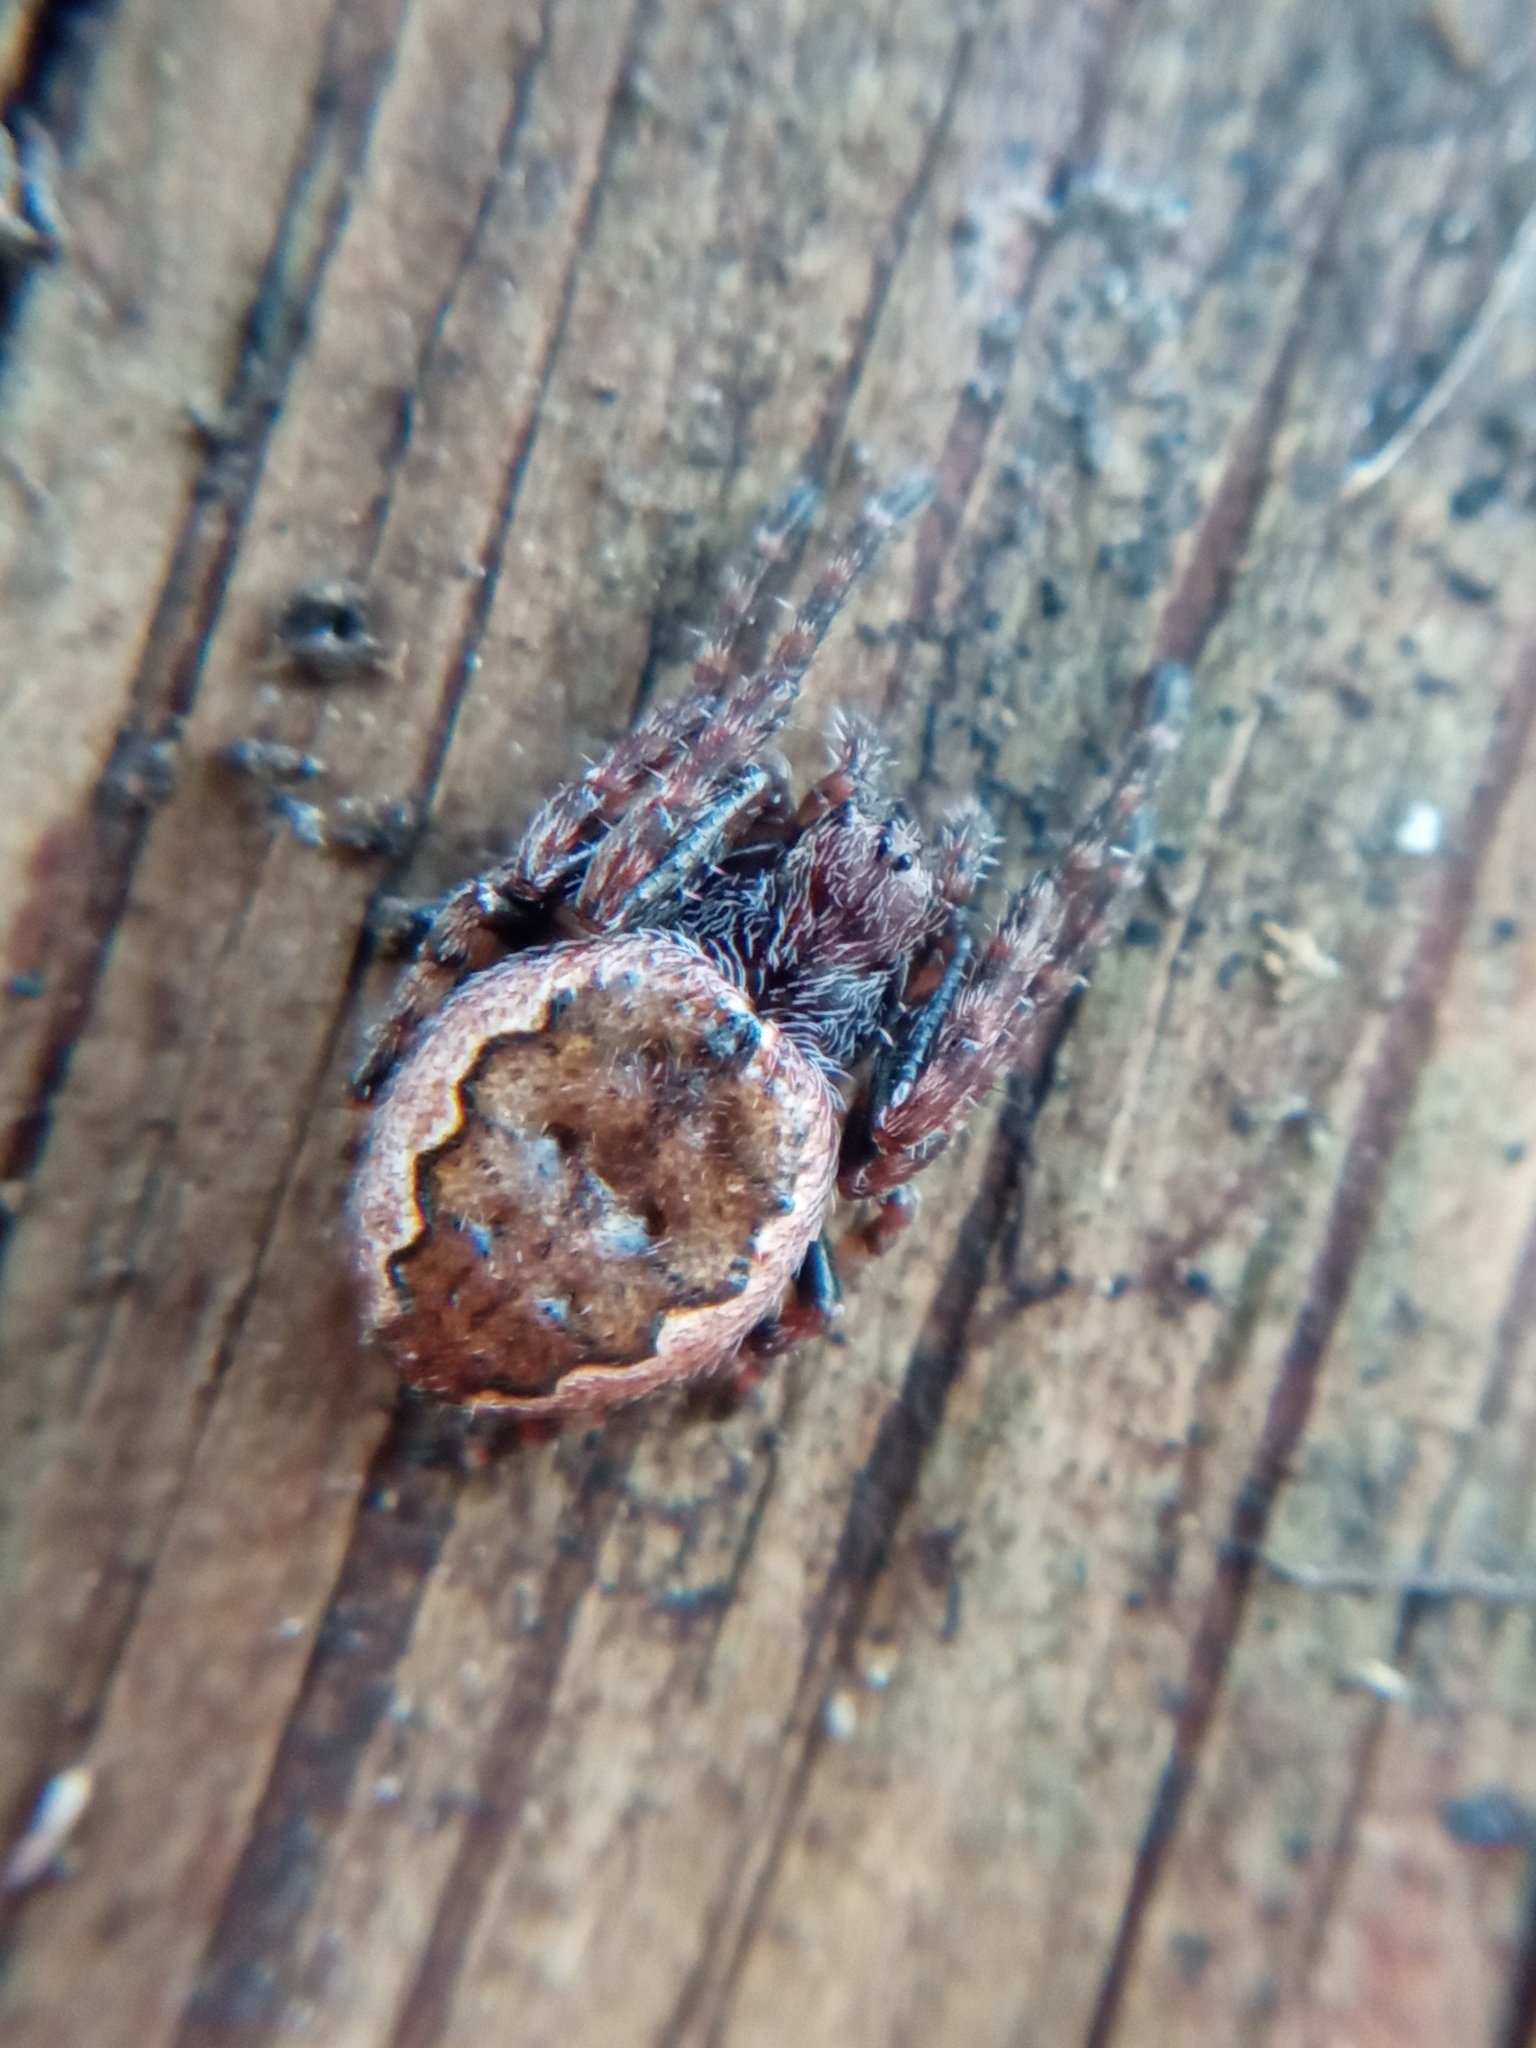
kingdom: Animalia
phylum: Arthropoda
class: Arachnida
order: Araneae
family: Araneidae
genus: Nuctenea
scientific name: Nuctenea umbratica
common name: Toad spider
